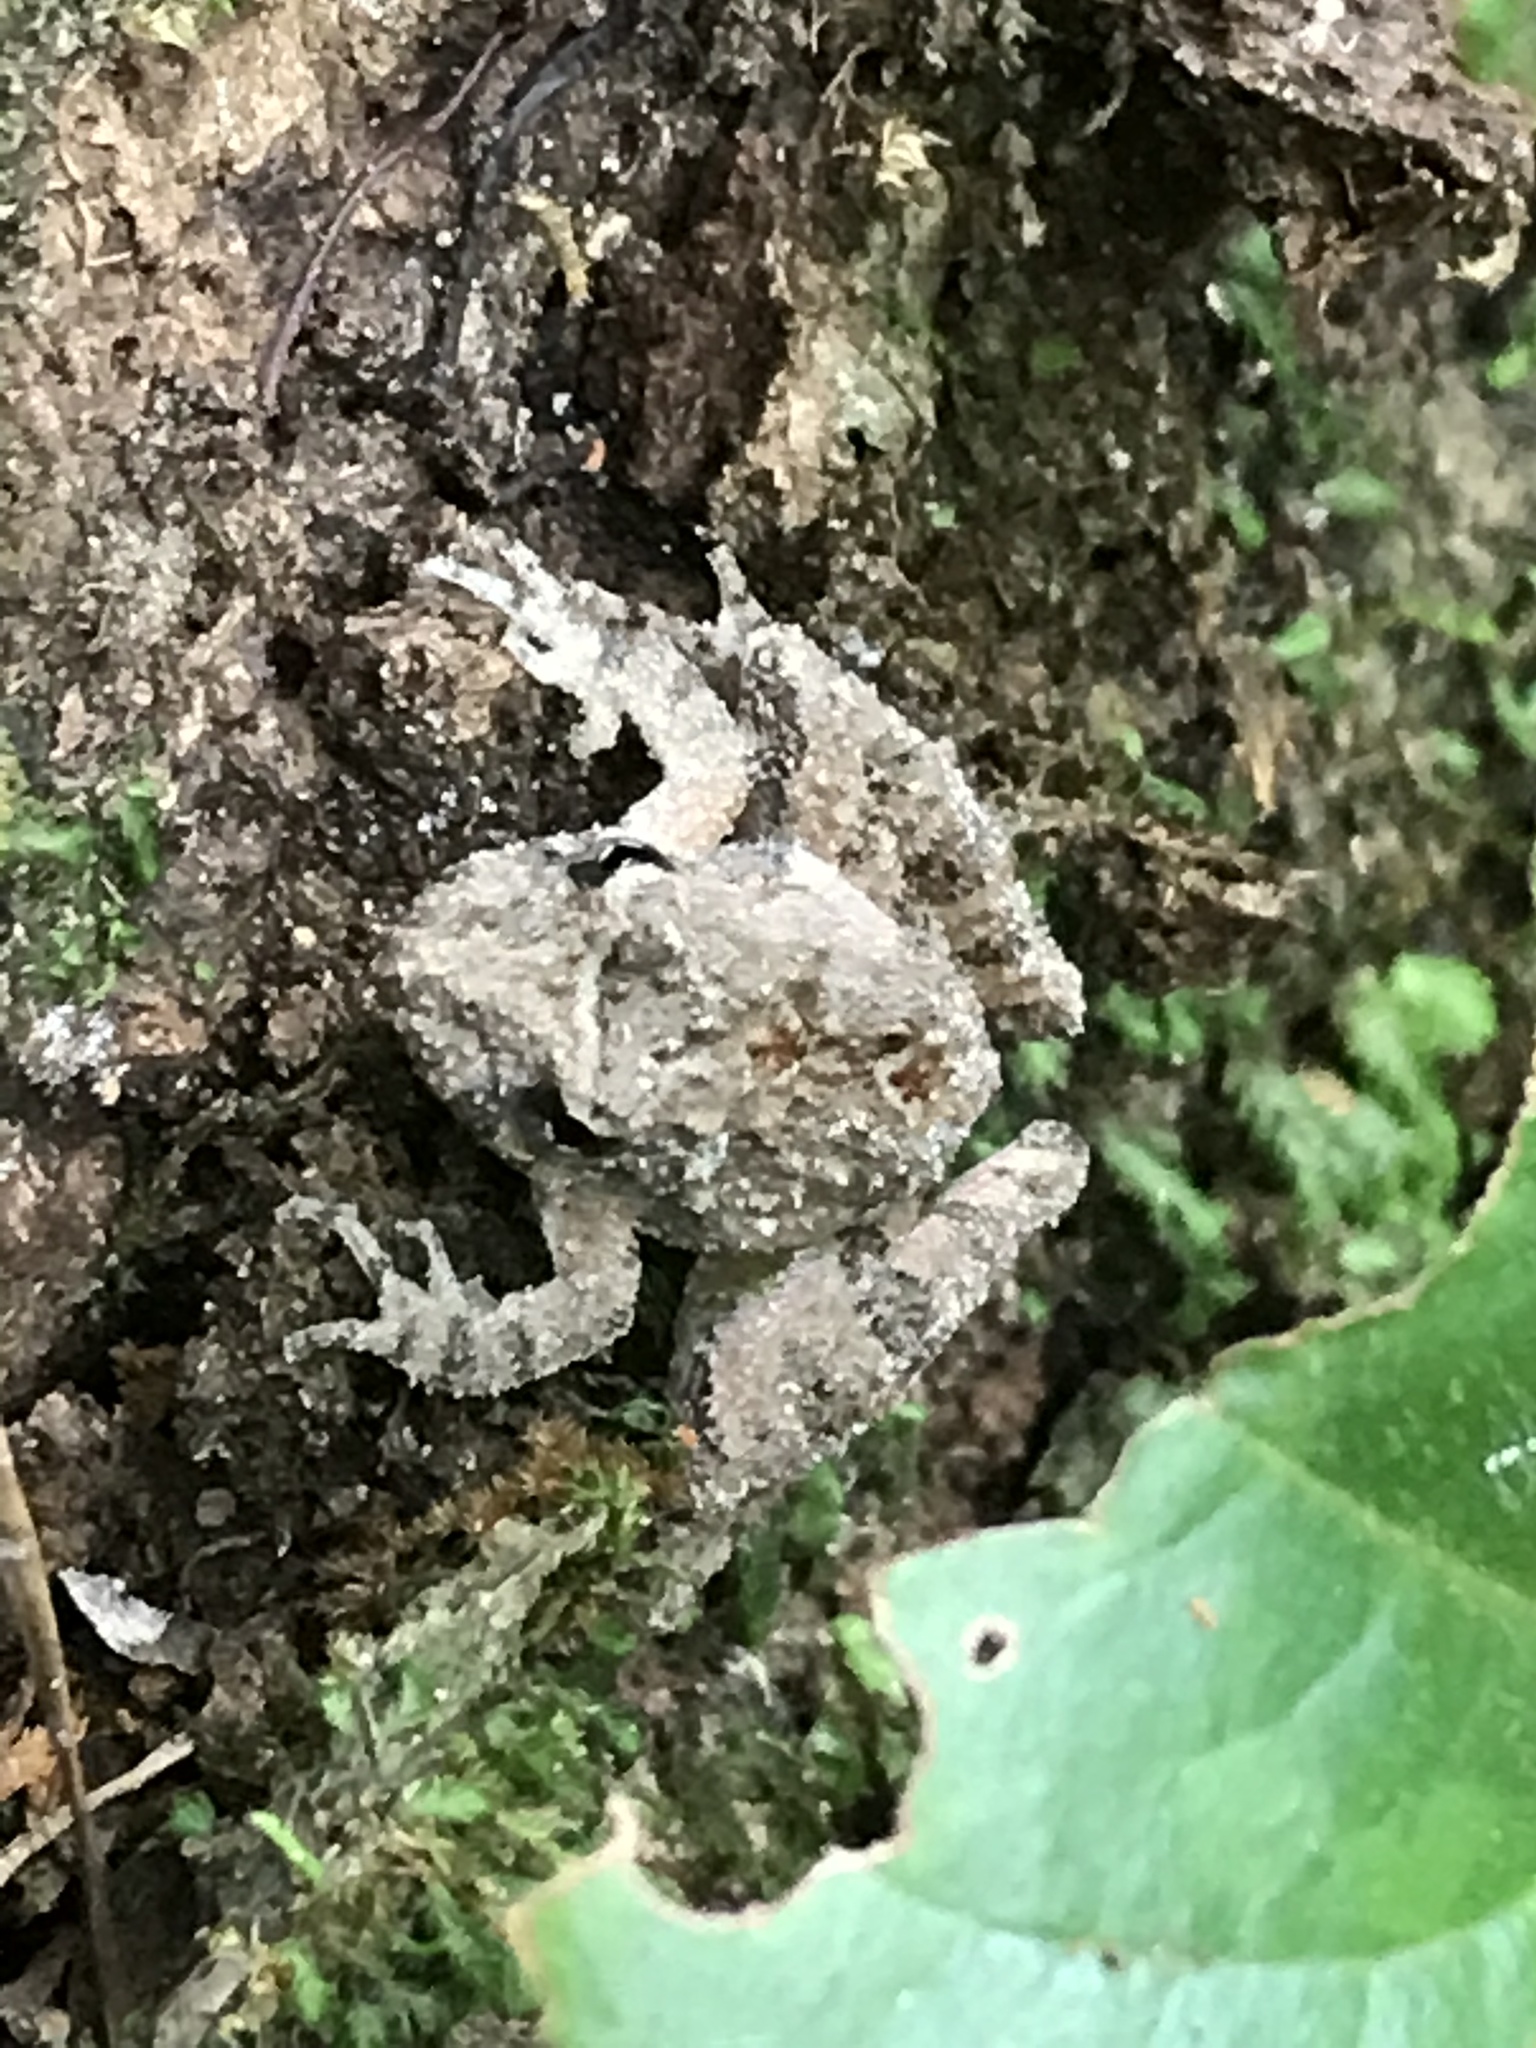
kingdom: Animalia
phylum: Chordata
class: Amphibia
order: Anura
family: Hylidae
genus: Acris
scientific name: Acris blanchardi
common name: Blanchard's cricket frog
